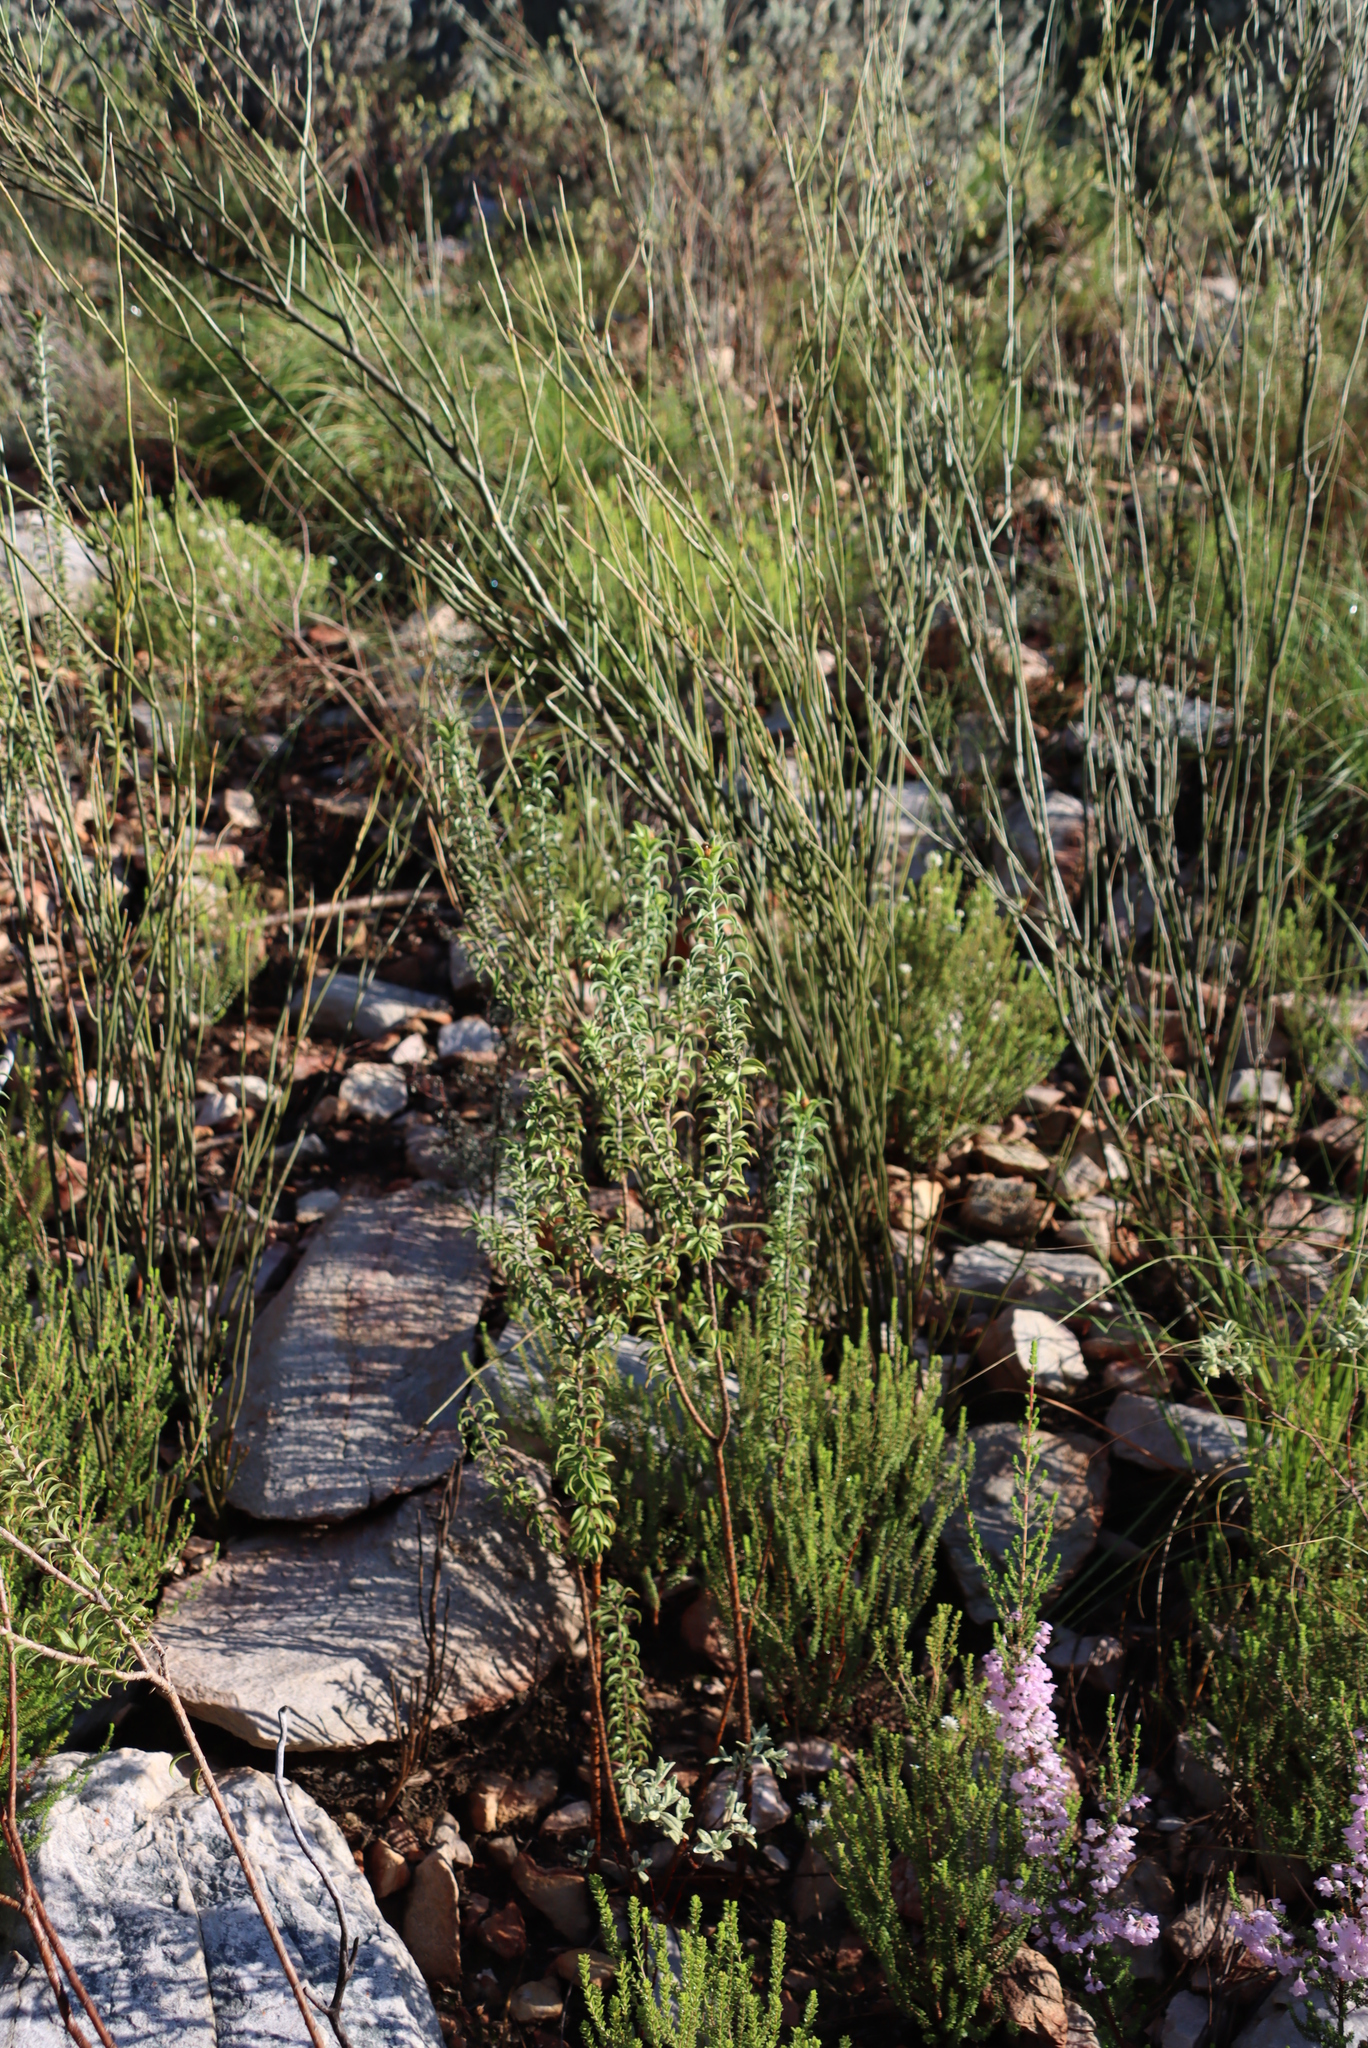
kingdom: Plantae
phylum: Tracheophyta
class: Magnoliopsida
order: Asterales
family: Asteraceae
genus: Oedera
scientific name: Oedera speciosa
